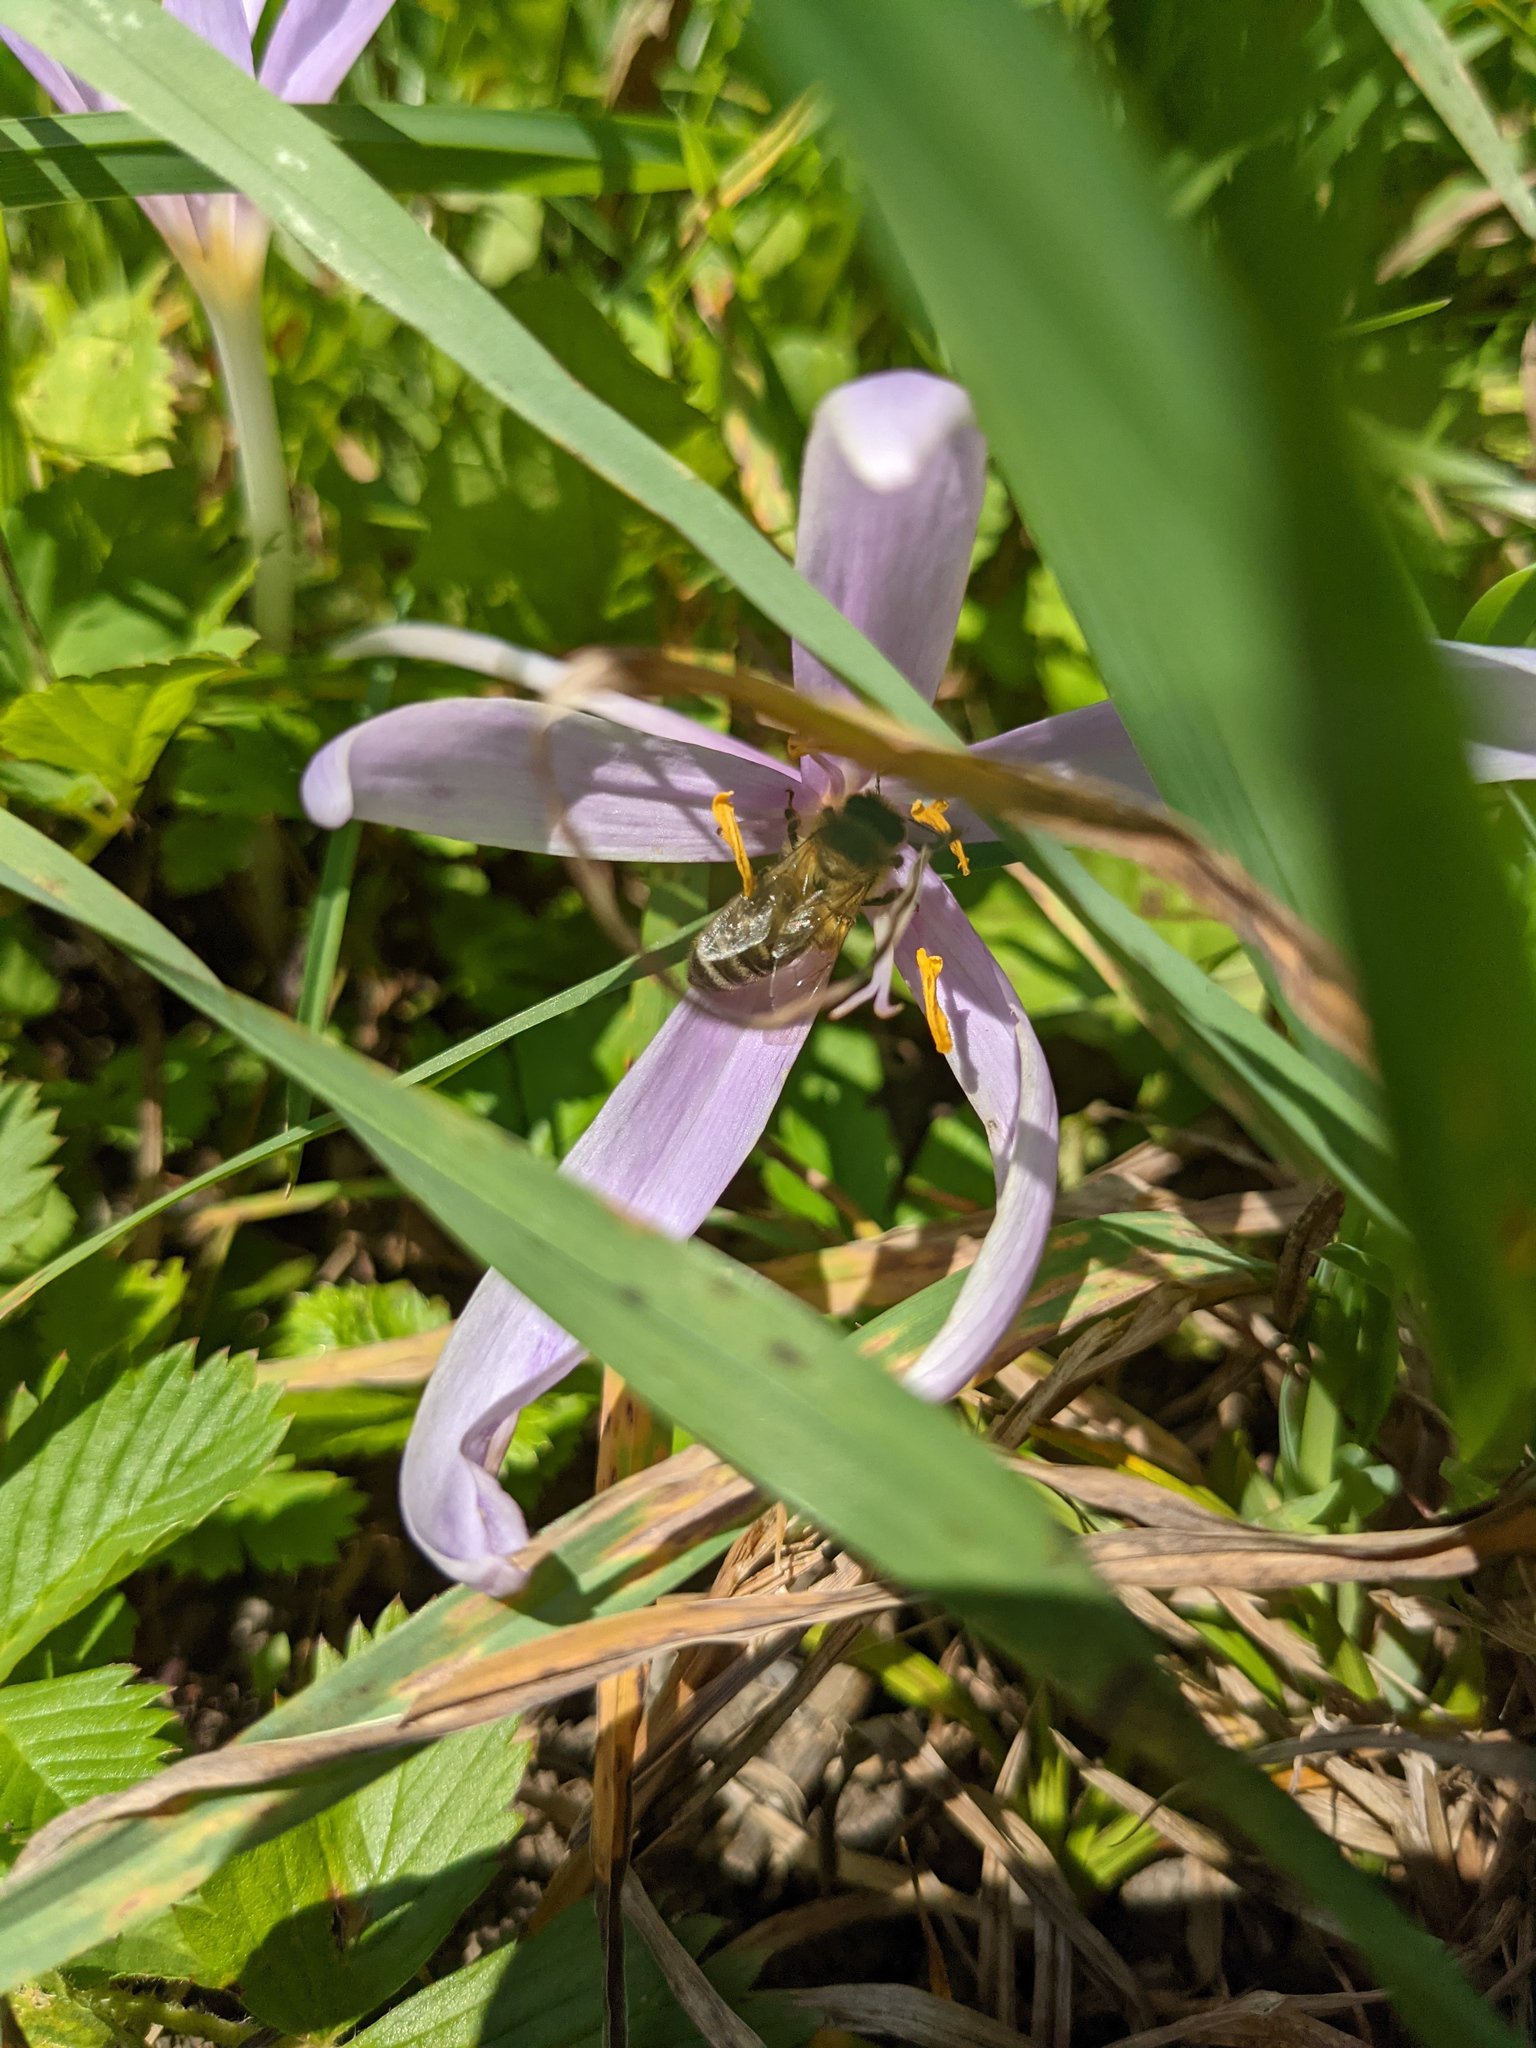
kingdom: Animalia
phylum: Arthropoda
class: Insecta
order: Hymenoptera
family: Apidae
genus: Apis
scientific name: Apis mellifera
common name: Honey bee
